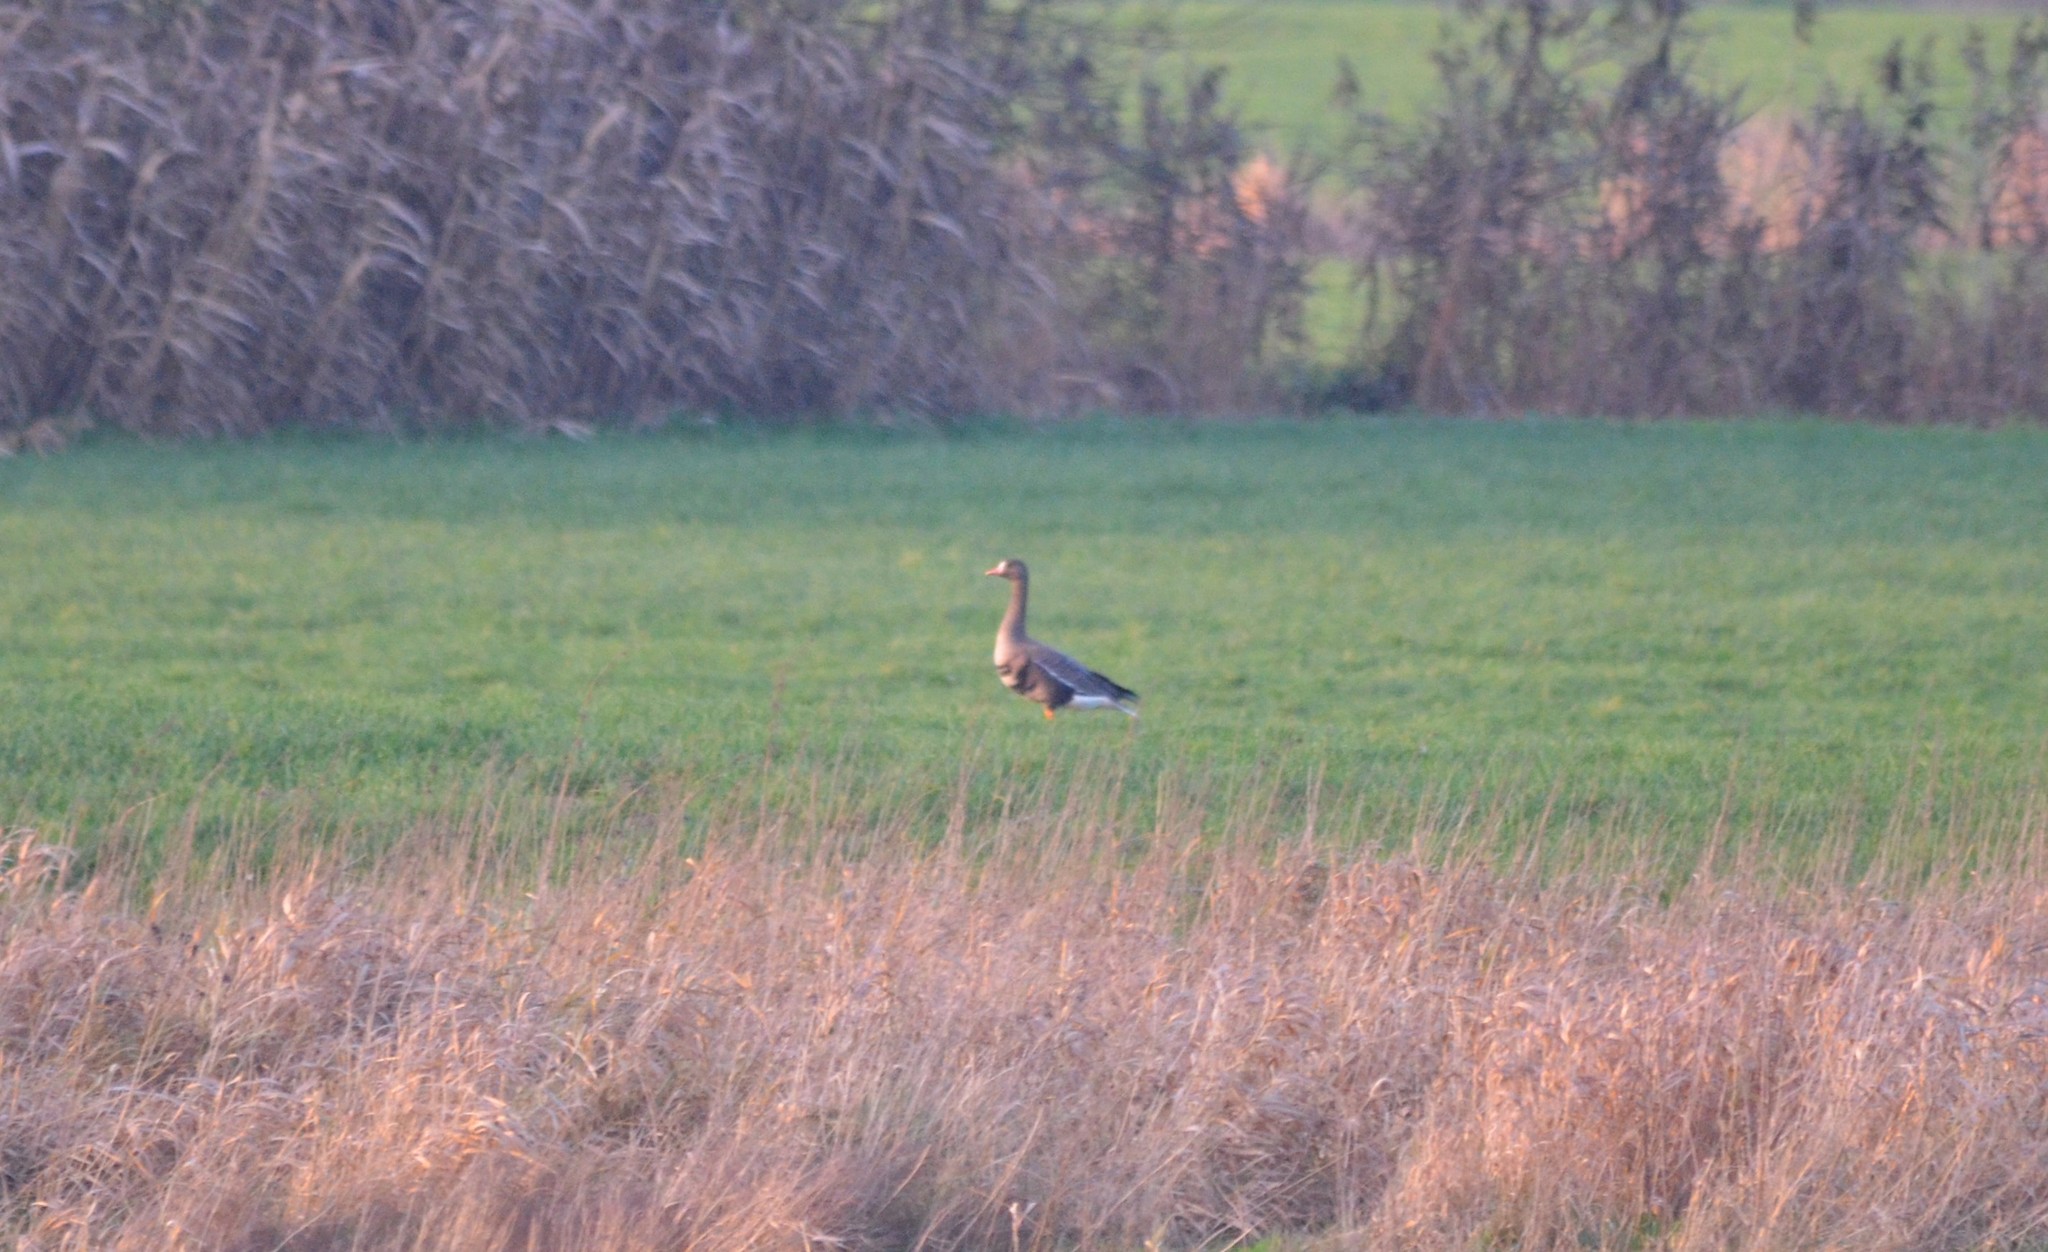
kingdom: Animalia
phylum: Chordata
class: Aves
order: Anseriformes
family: Anatidae
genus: Anser
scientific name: Anser albifrons
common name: Greater white-fronted goose
